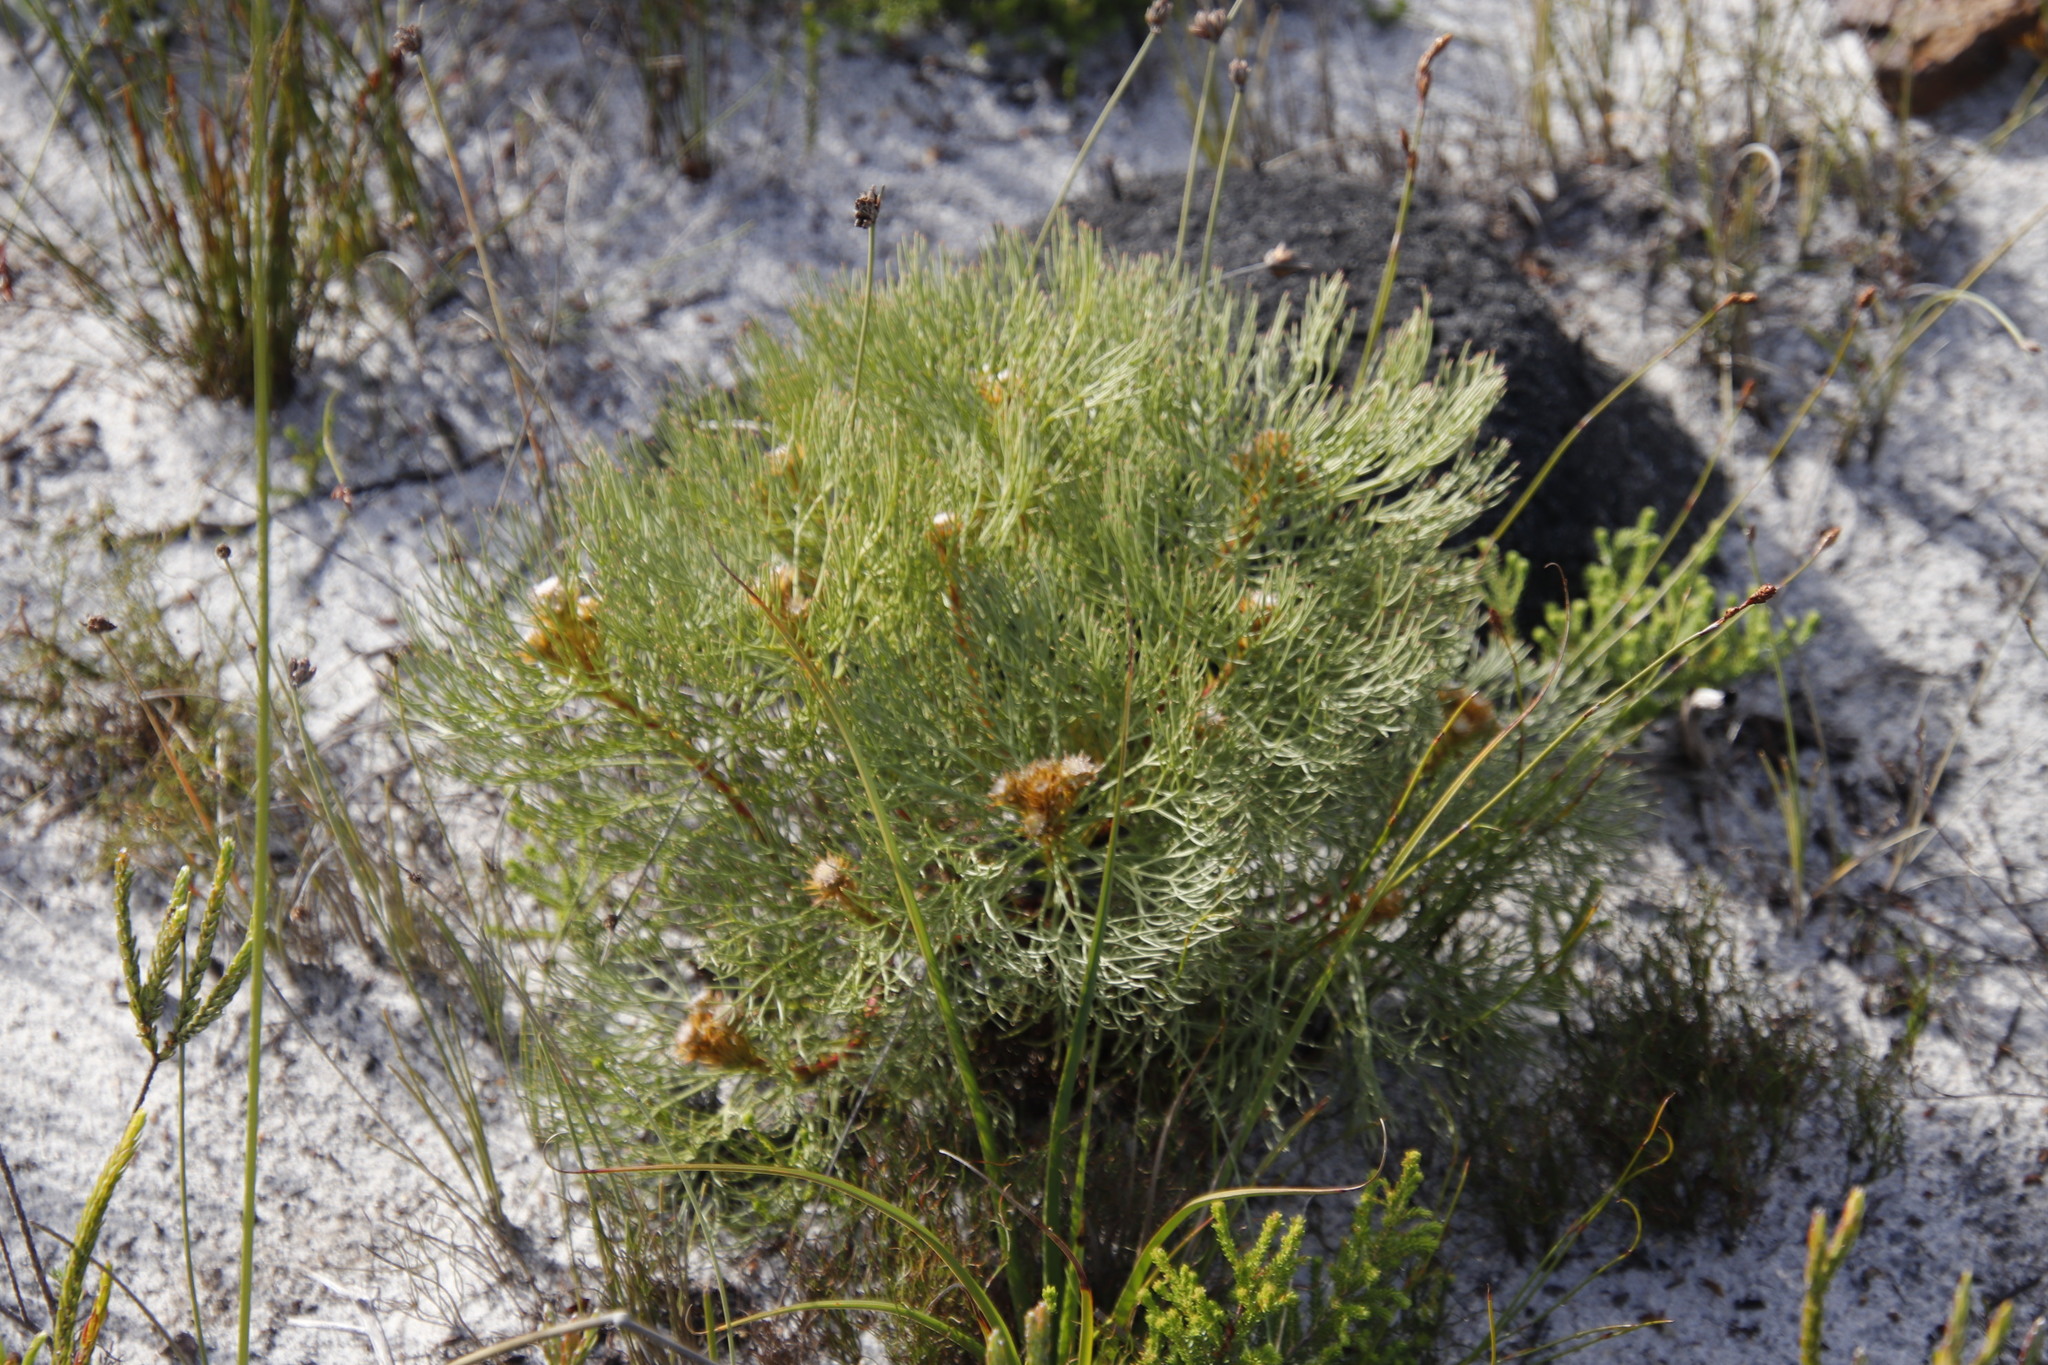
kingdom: Plantae
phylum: Tracheophyta
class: Magnoliopsida
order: Proteales
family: Proteaceae
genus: Serruria
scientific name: Serruria glomerata
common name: Cluster spiderhead
